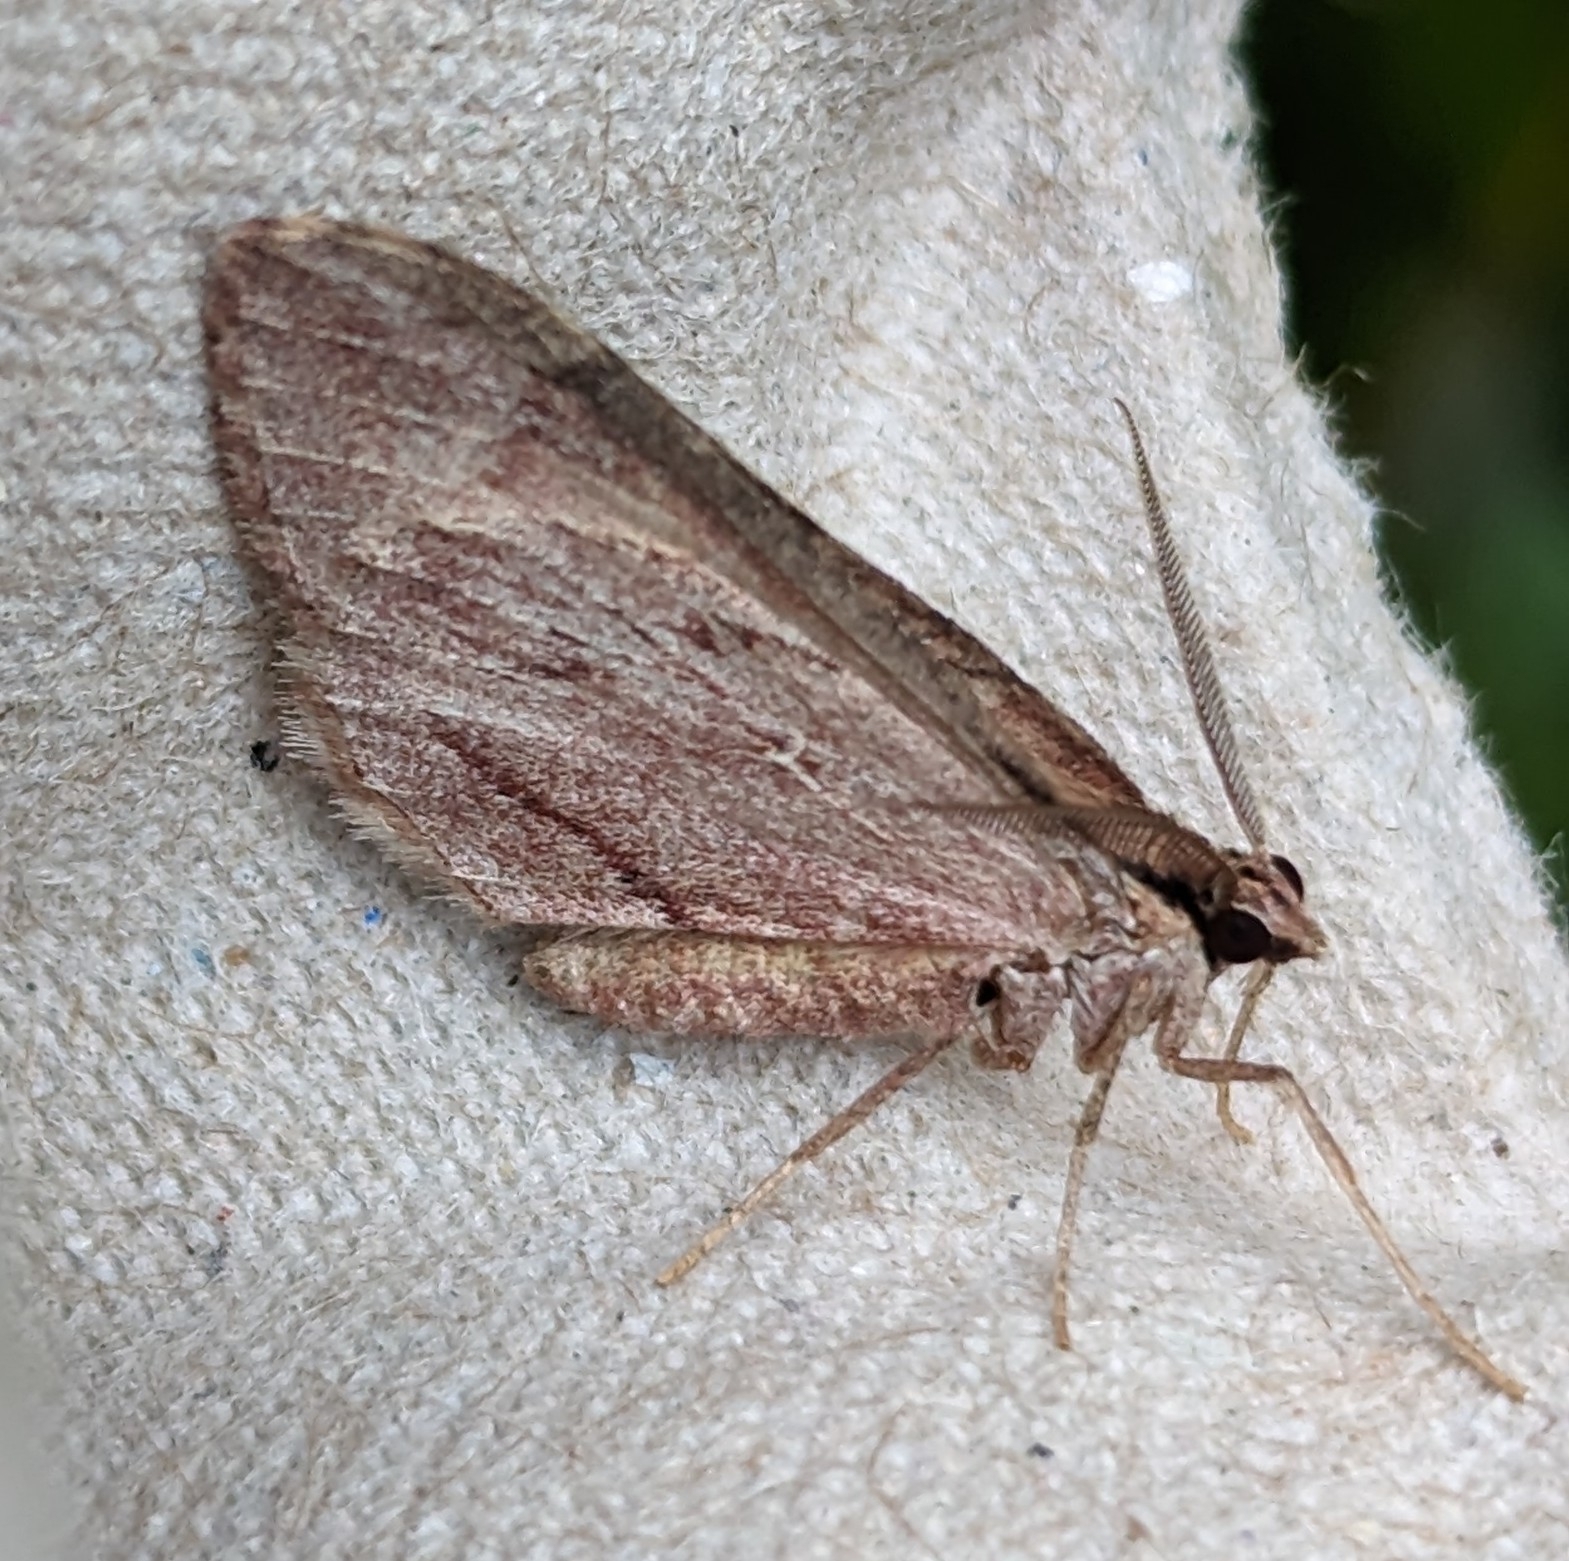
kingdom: Animalia
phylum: Arthropoda
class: Insecta
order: Lepidoptera
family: Geometridae
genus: Stamnoctenis
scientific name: Stamnoctenis pearsalli
